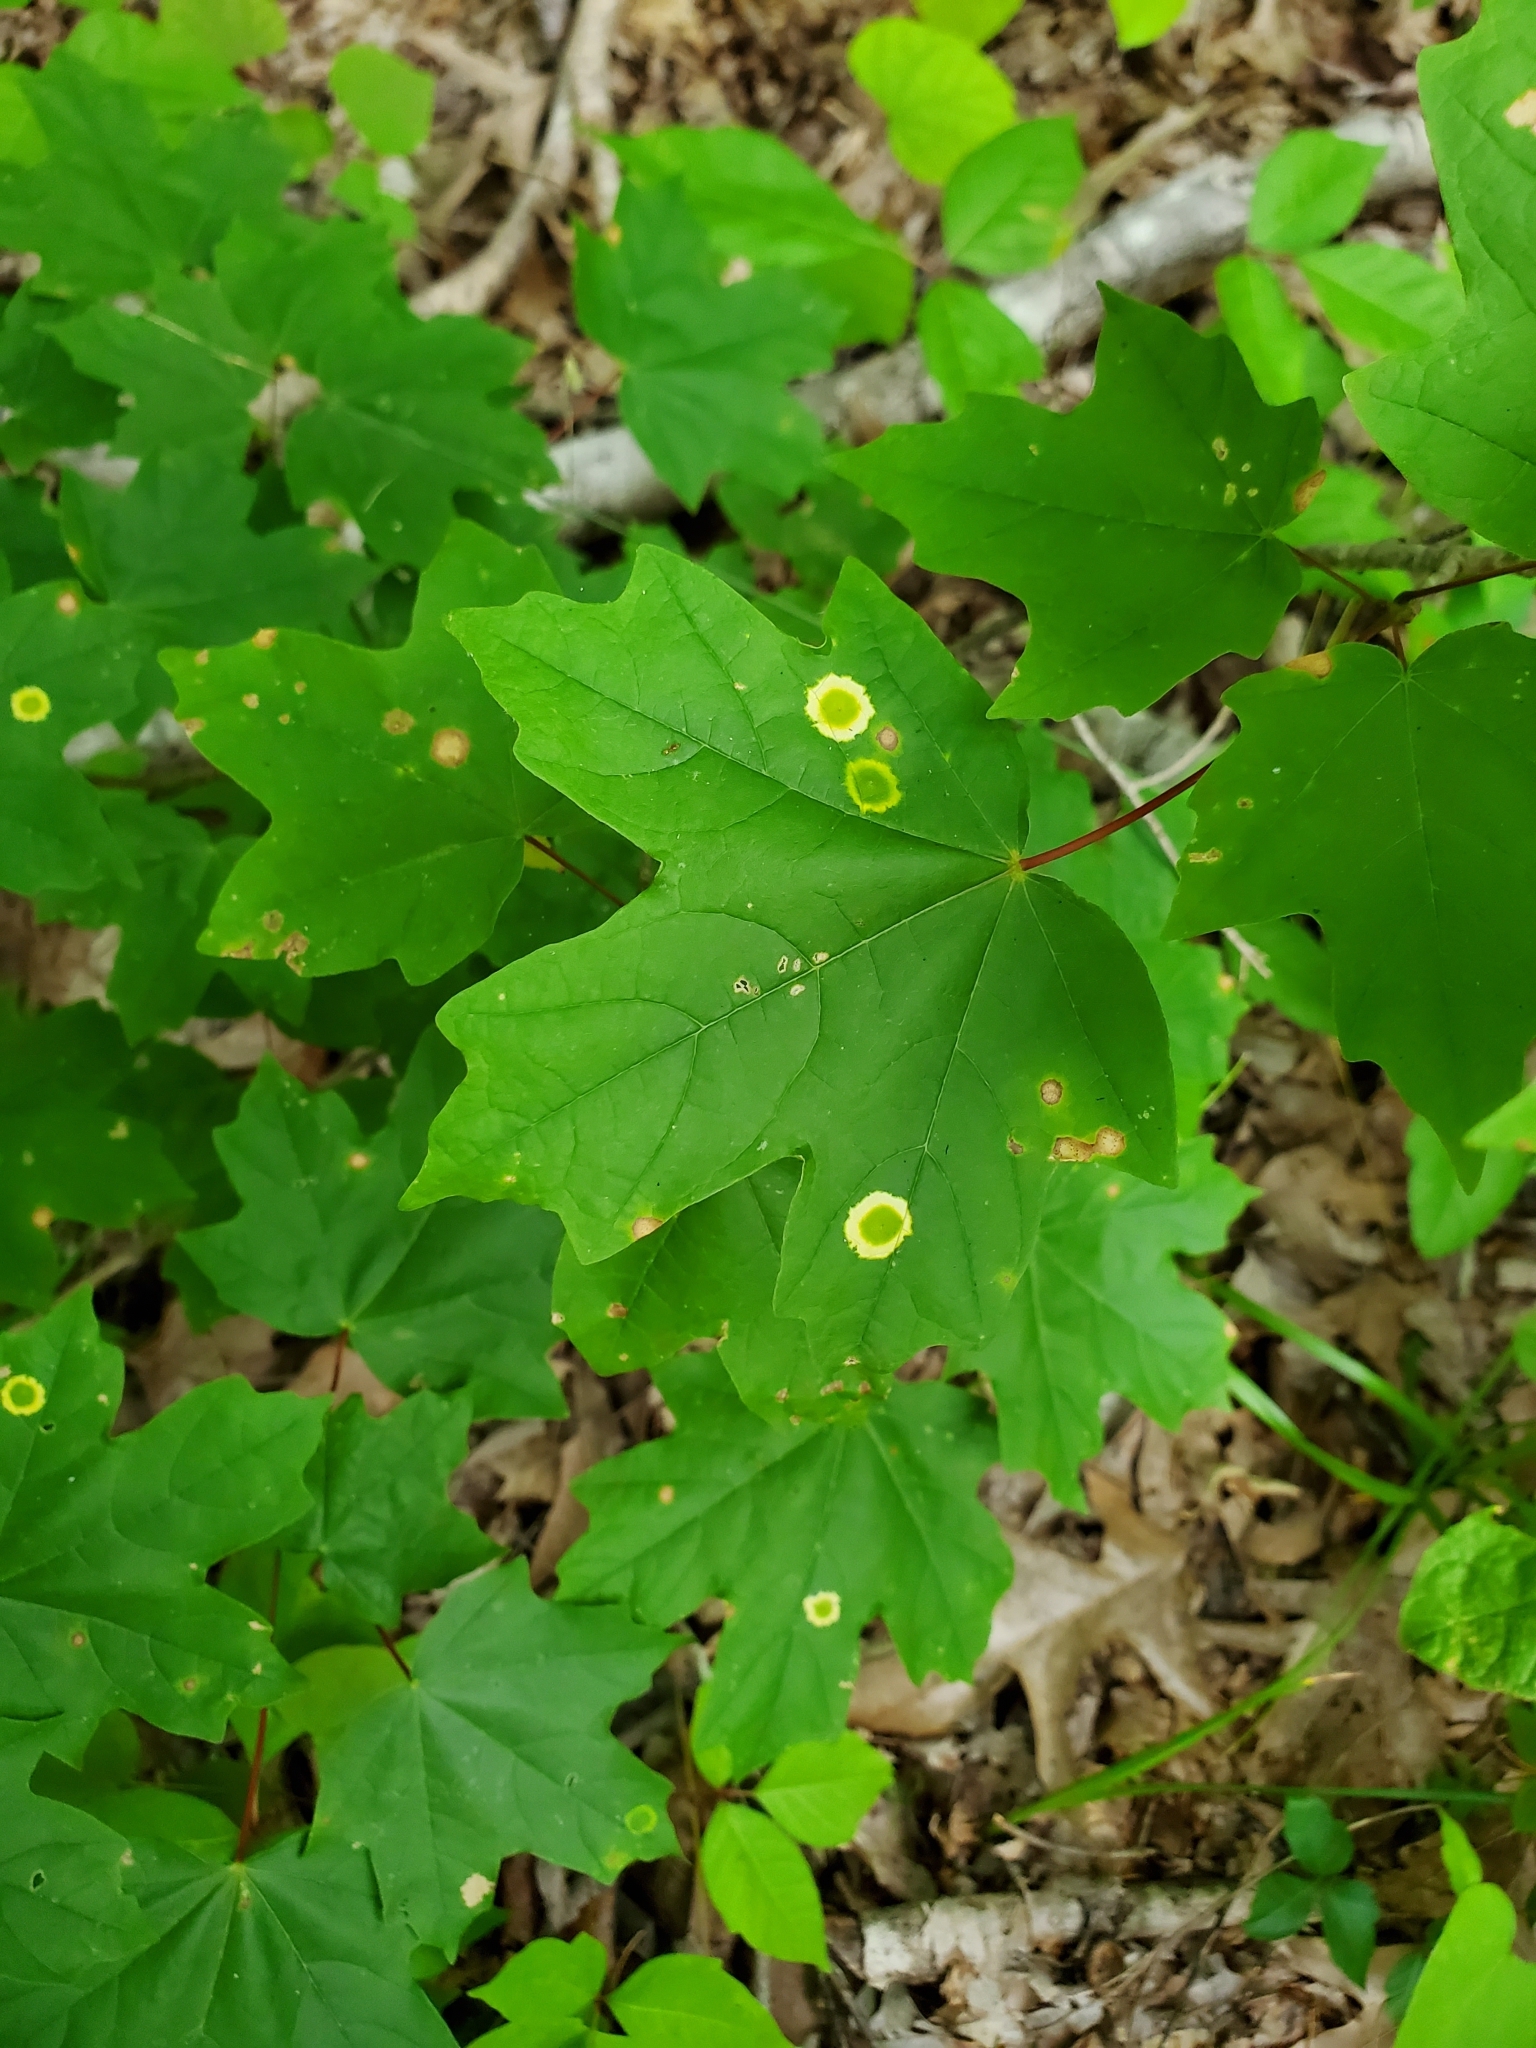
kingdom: Animalia
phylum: Arthropoda
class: Insecta
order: Diptera
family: Cecidomyiidae
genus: Acericecis
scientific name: Acericecis ocellaris
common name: Ocellate gall midge
